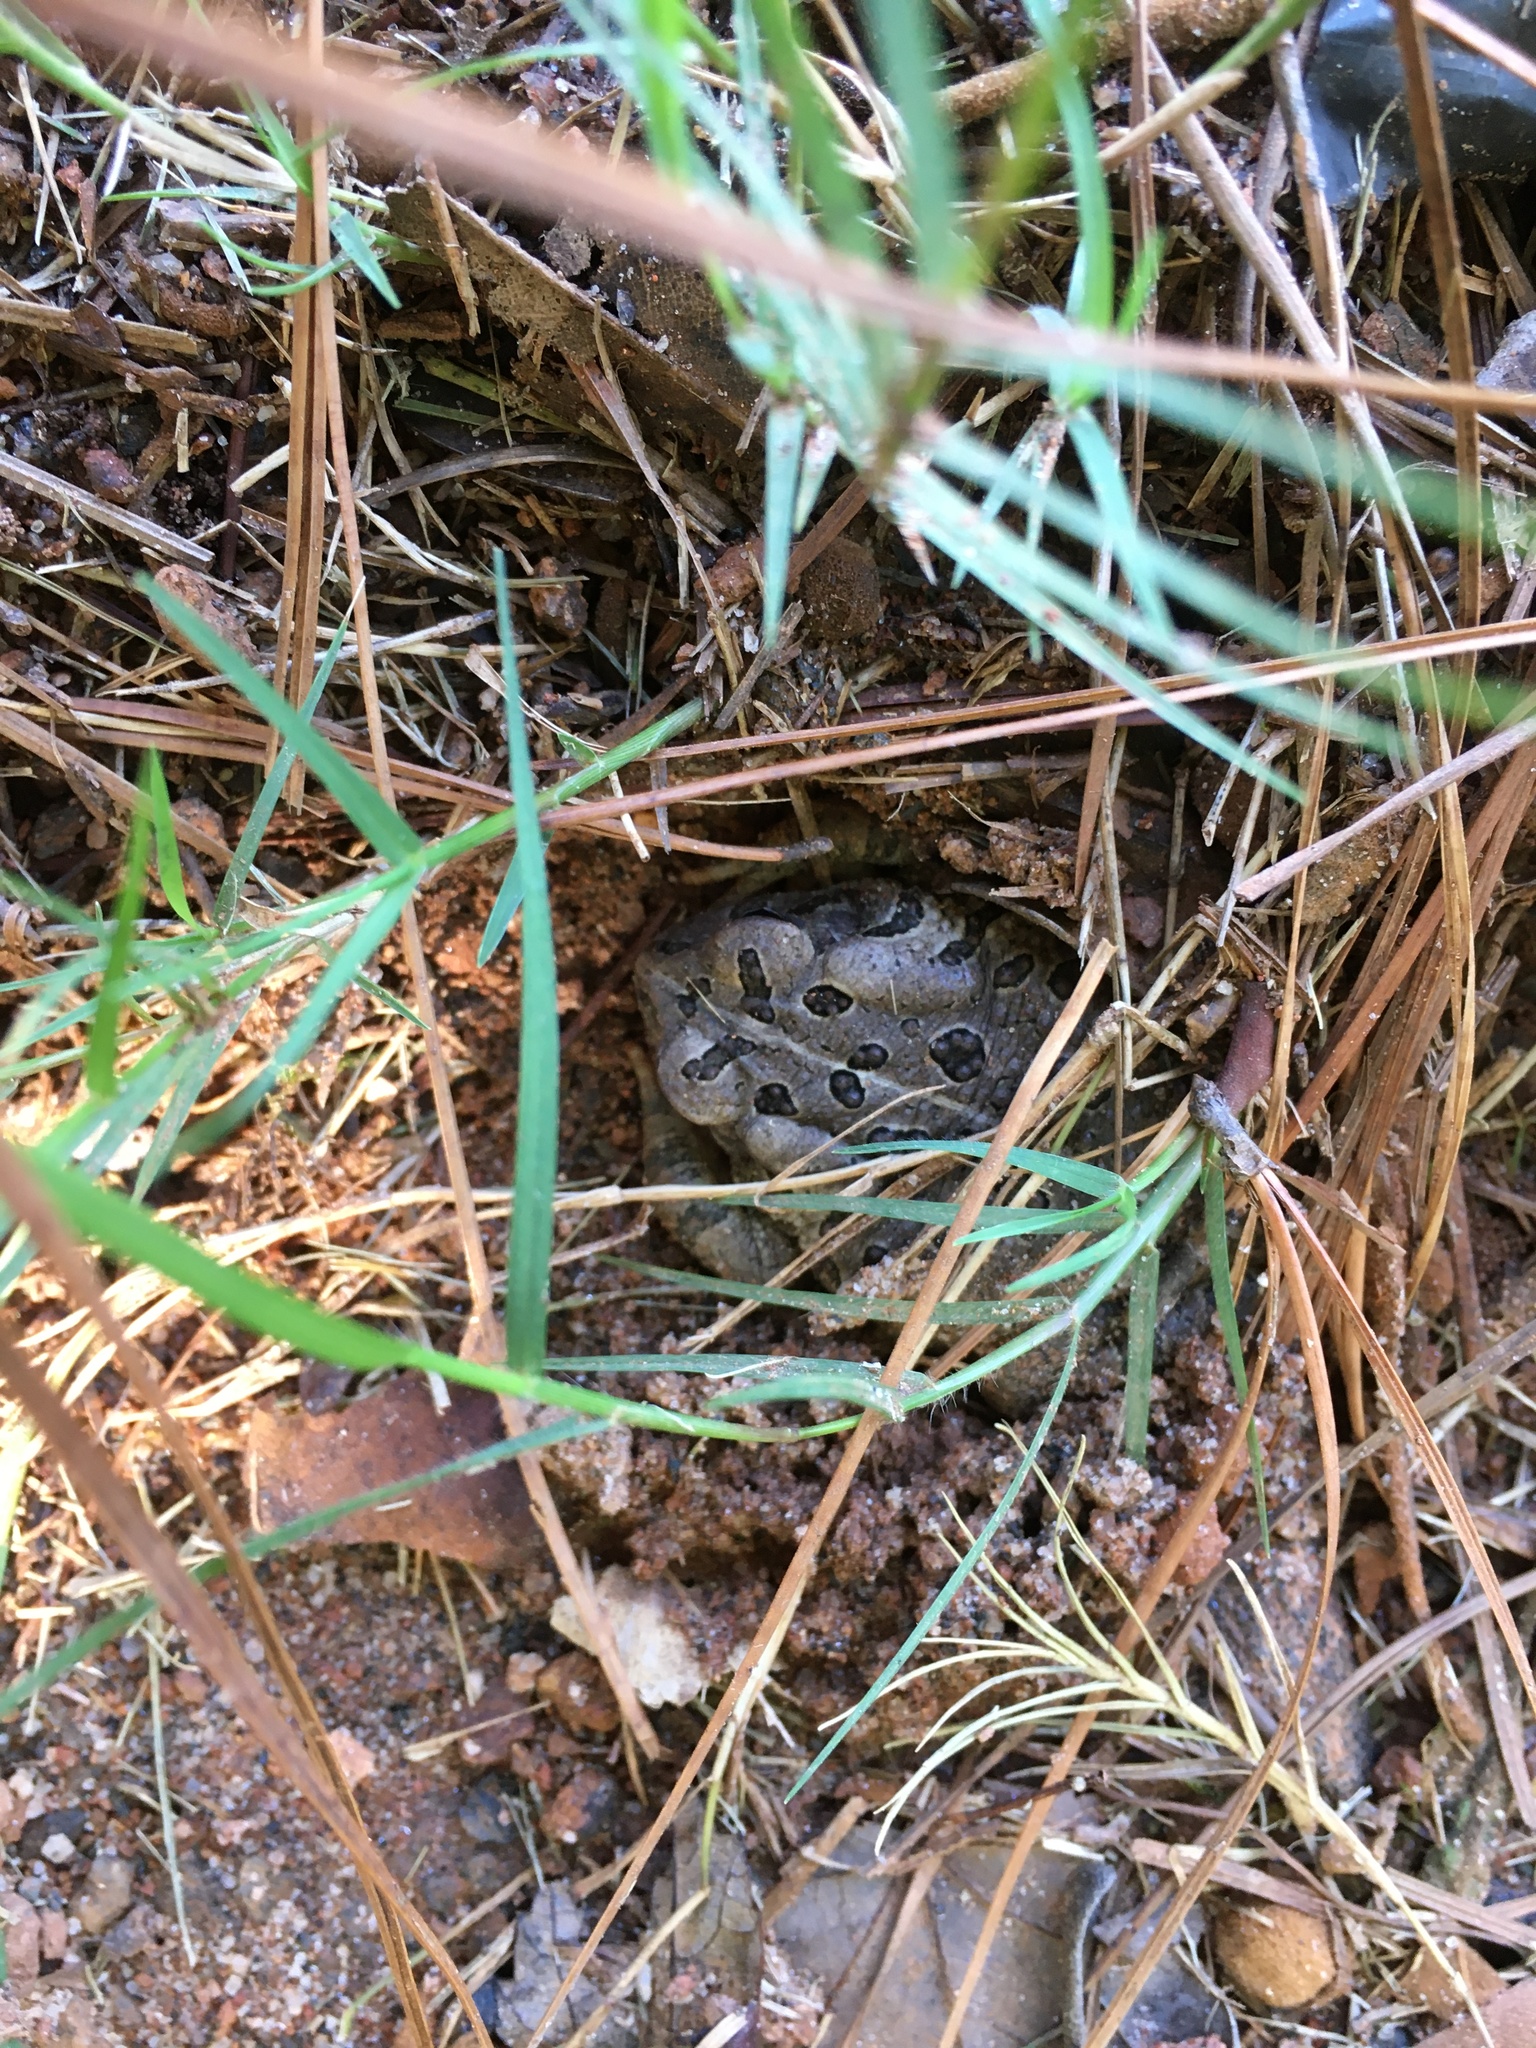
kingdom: Animalia
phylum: Chordata
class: Amphibia
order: Anura
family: Bufonidae
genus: Anaxyrus
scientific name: Anaxyrus fowleri
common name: Fowler's toad
